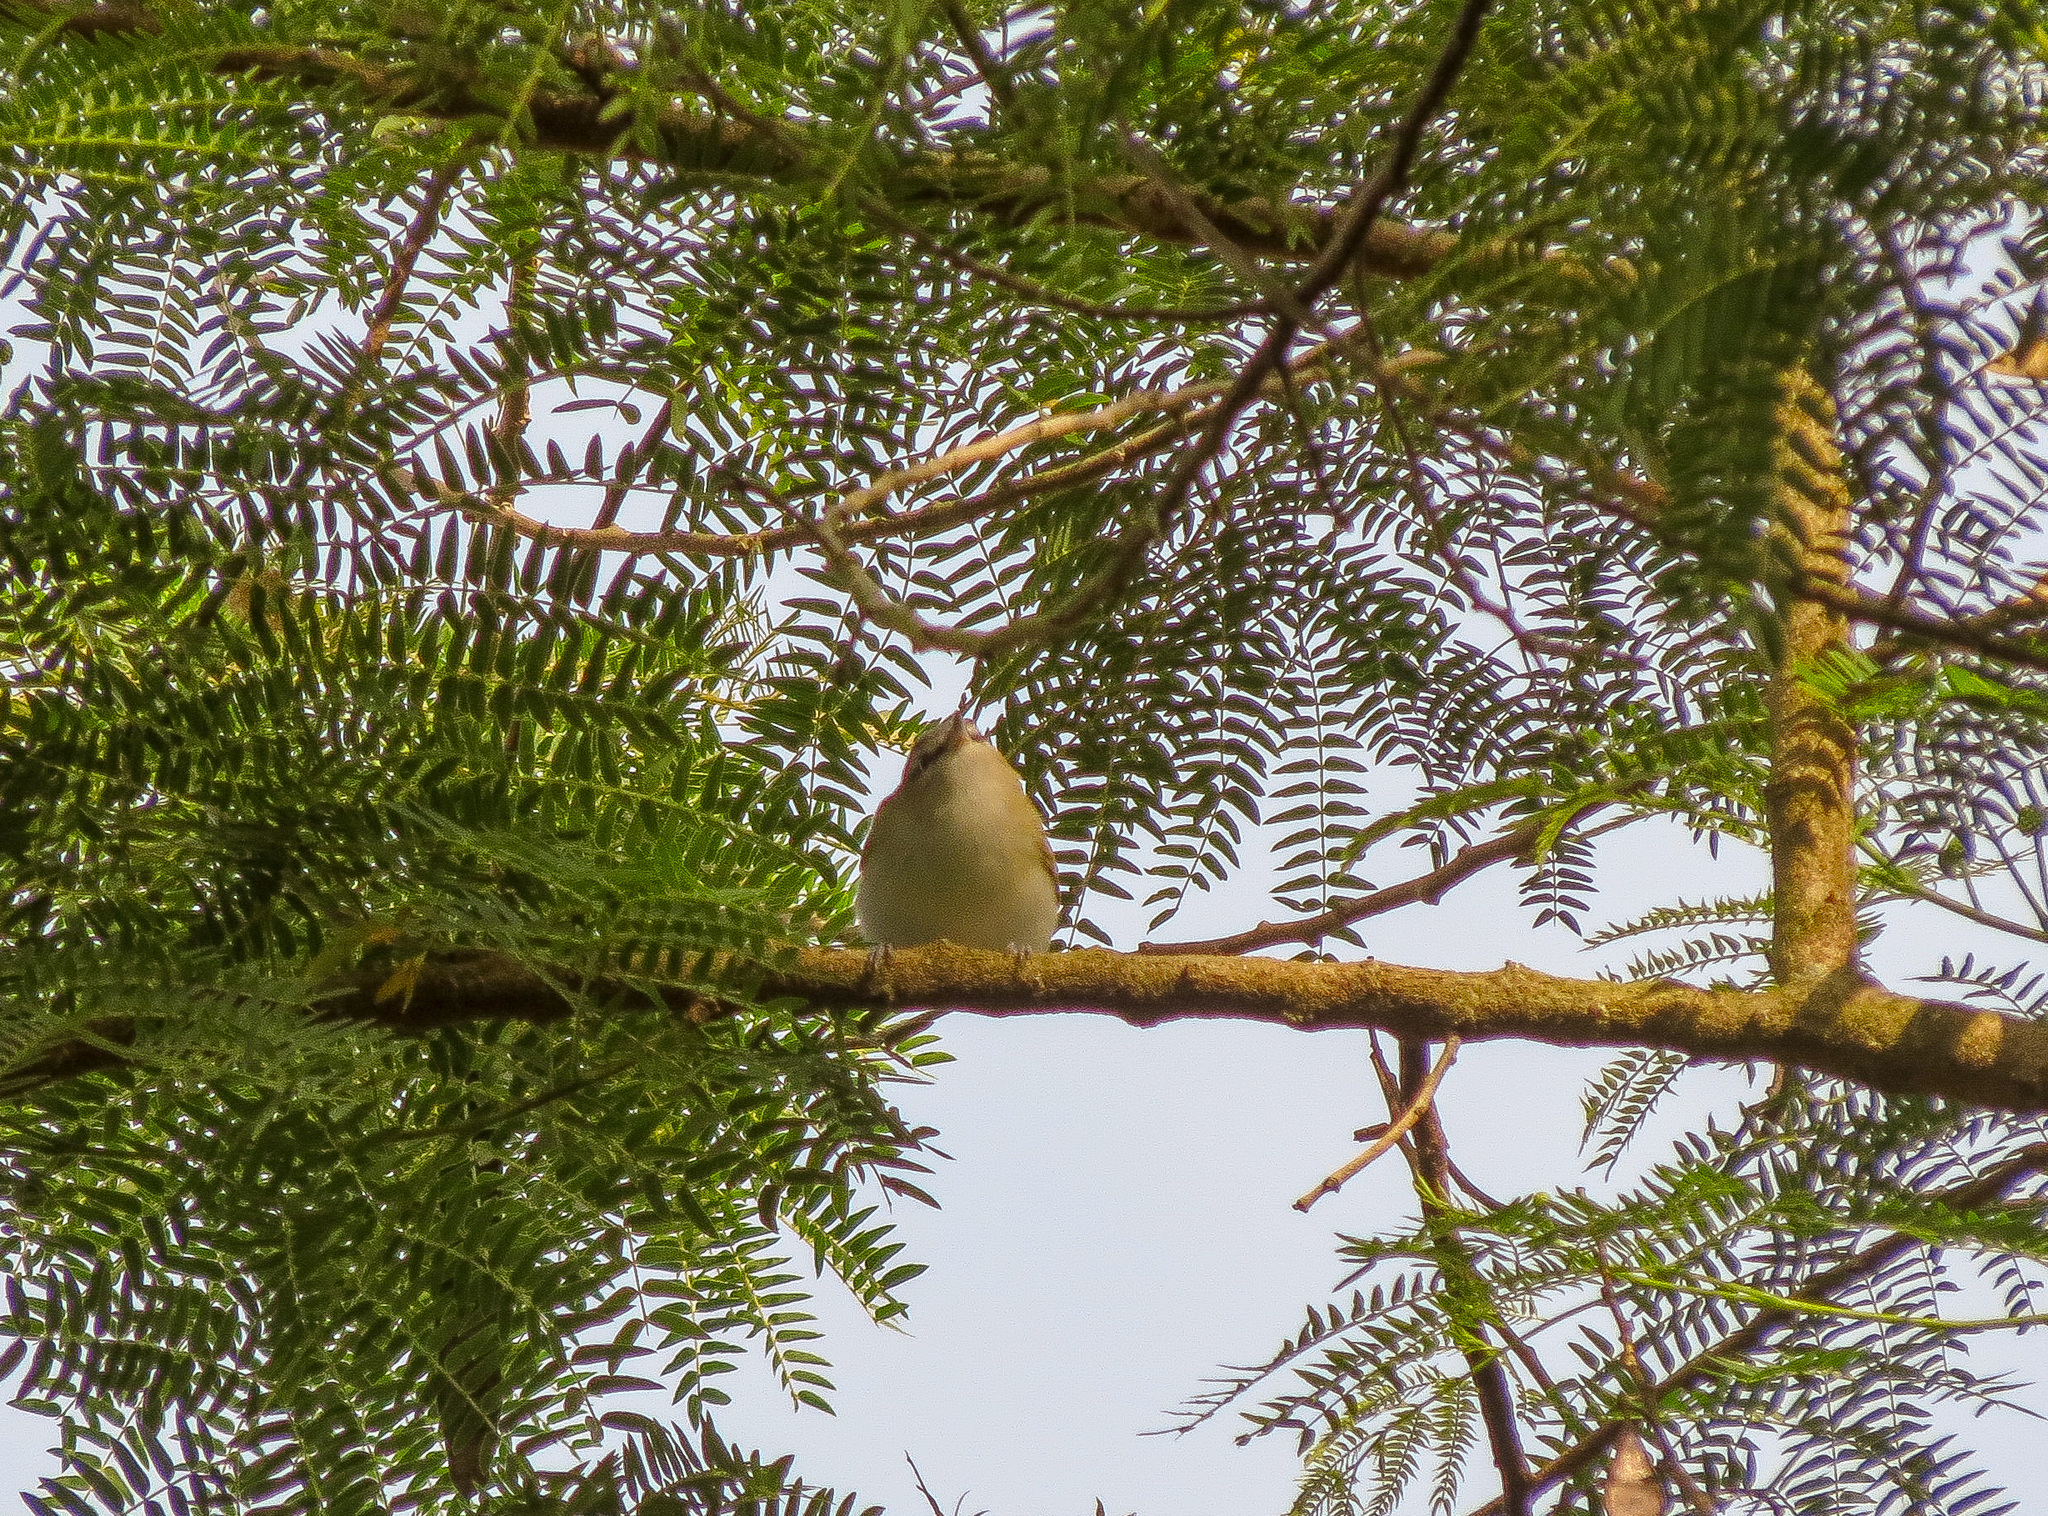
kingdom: Animalia
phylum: Chordata
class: Aves
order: Passeriformes
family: Vireonidae
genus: Vireo
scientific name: Vireo olivaceus
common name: Red-eyed vireo
